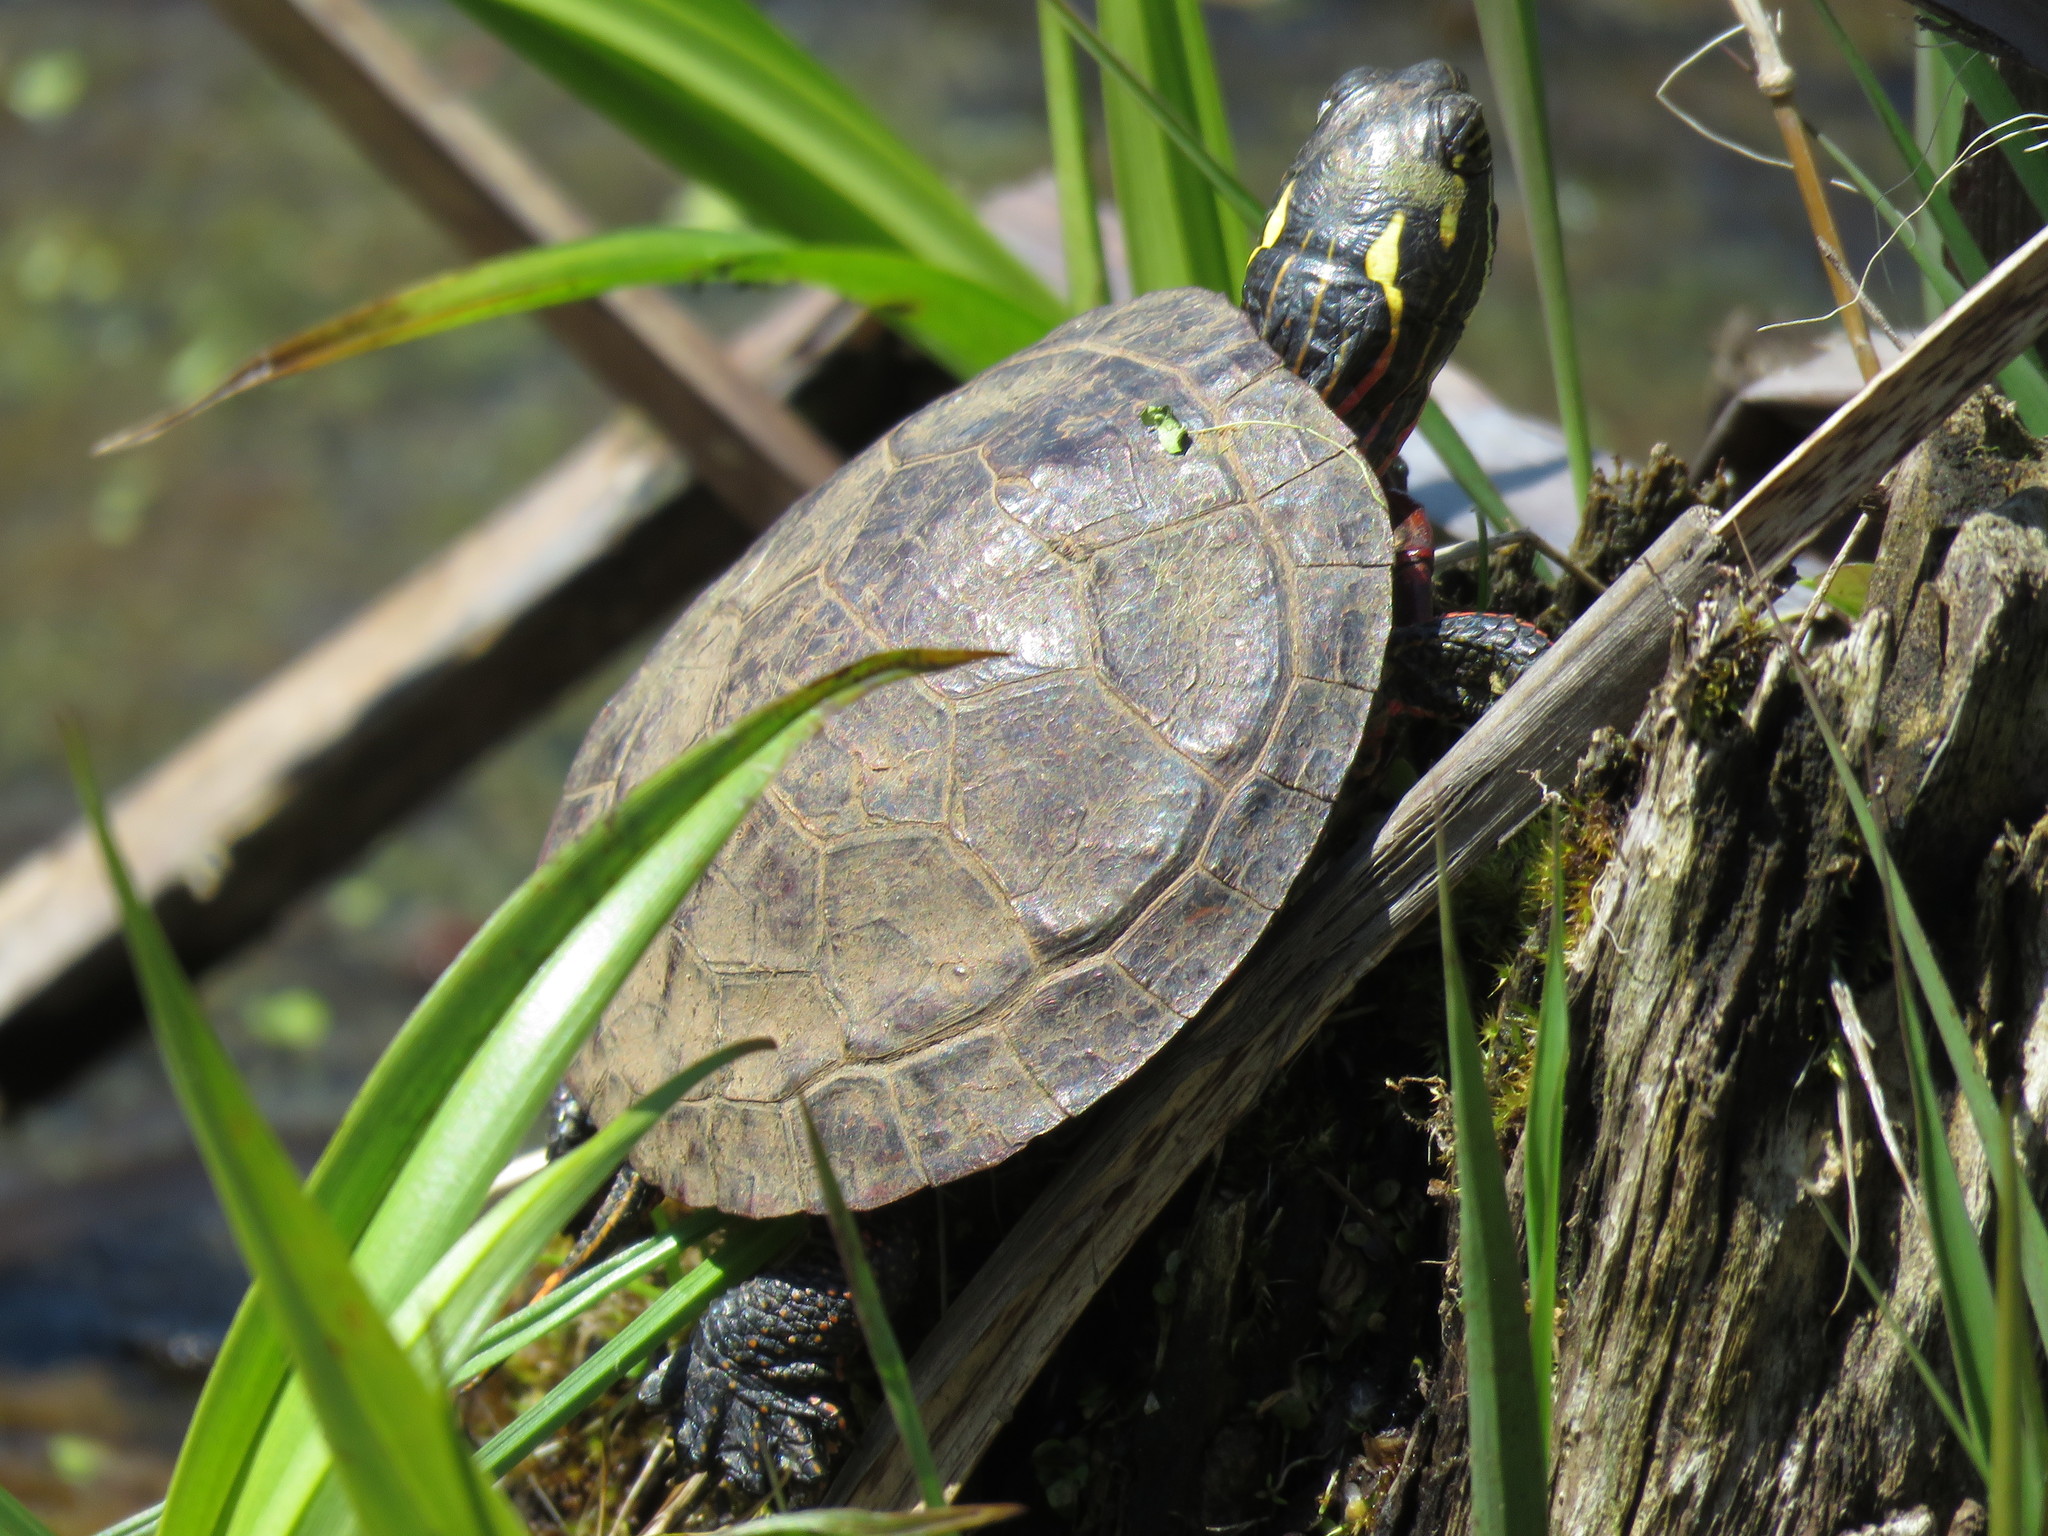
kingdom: Animalia
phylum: Chordata
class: Testudines
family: Emydidae
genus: Chrysemys
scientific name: Chrysemys picta
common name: Painted turtle
